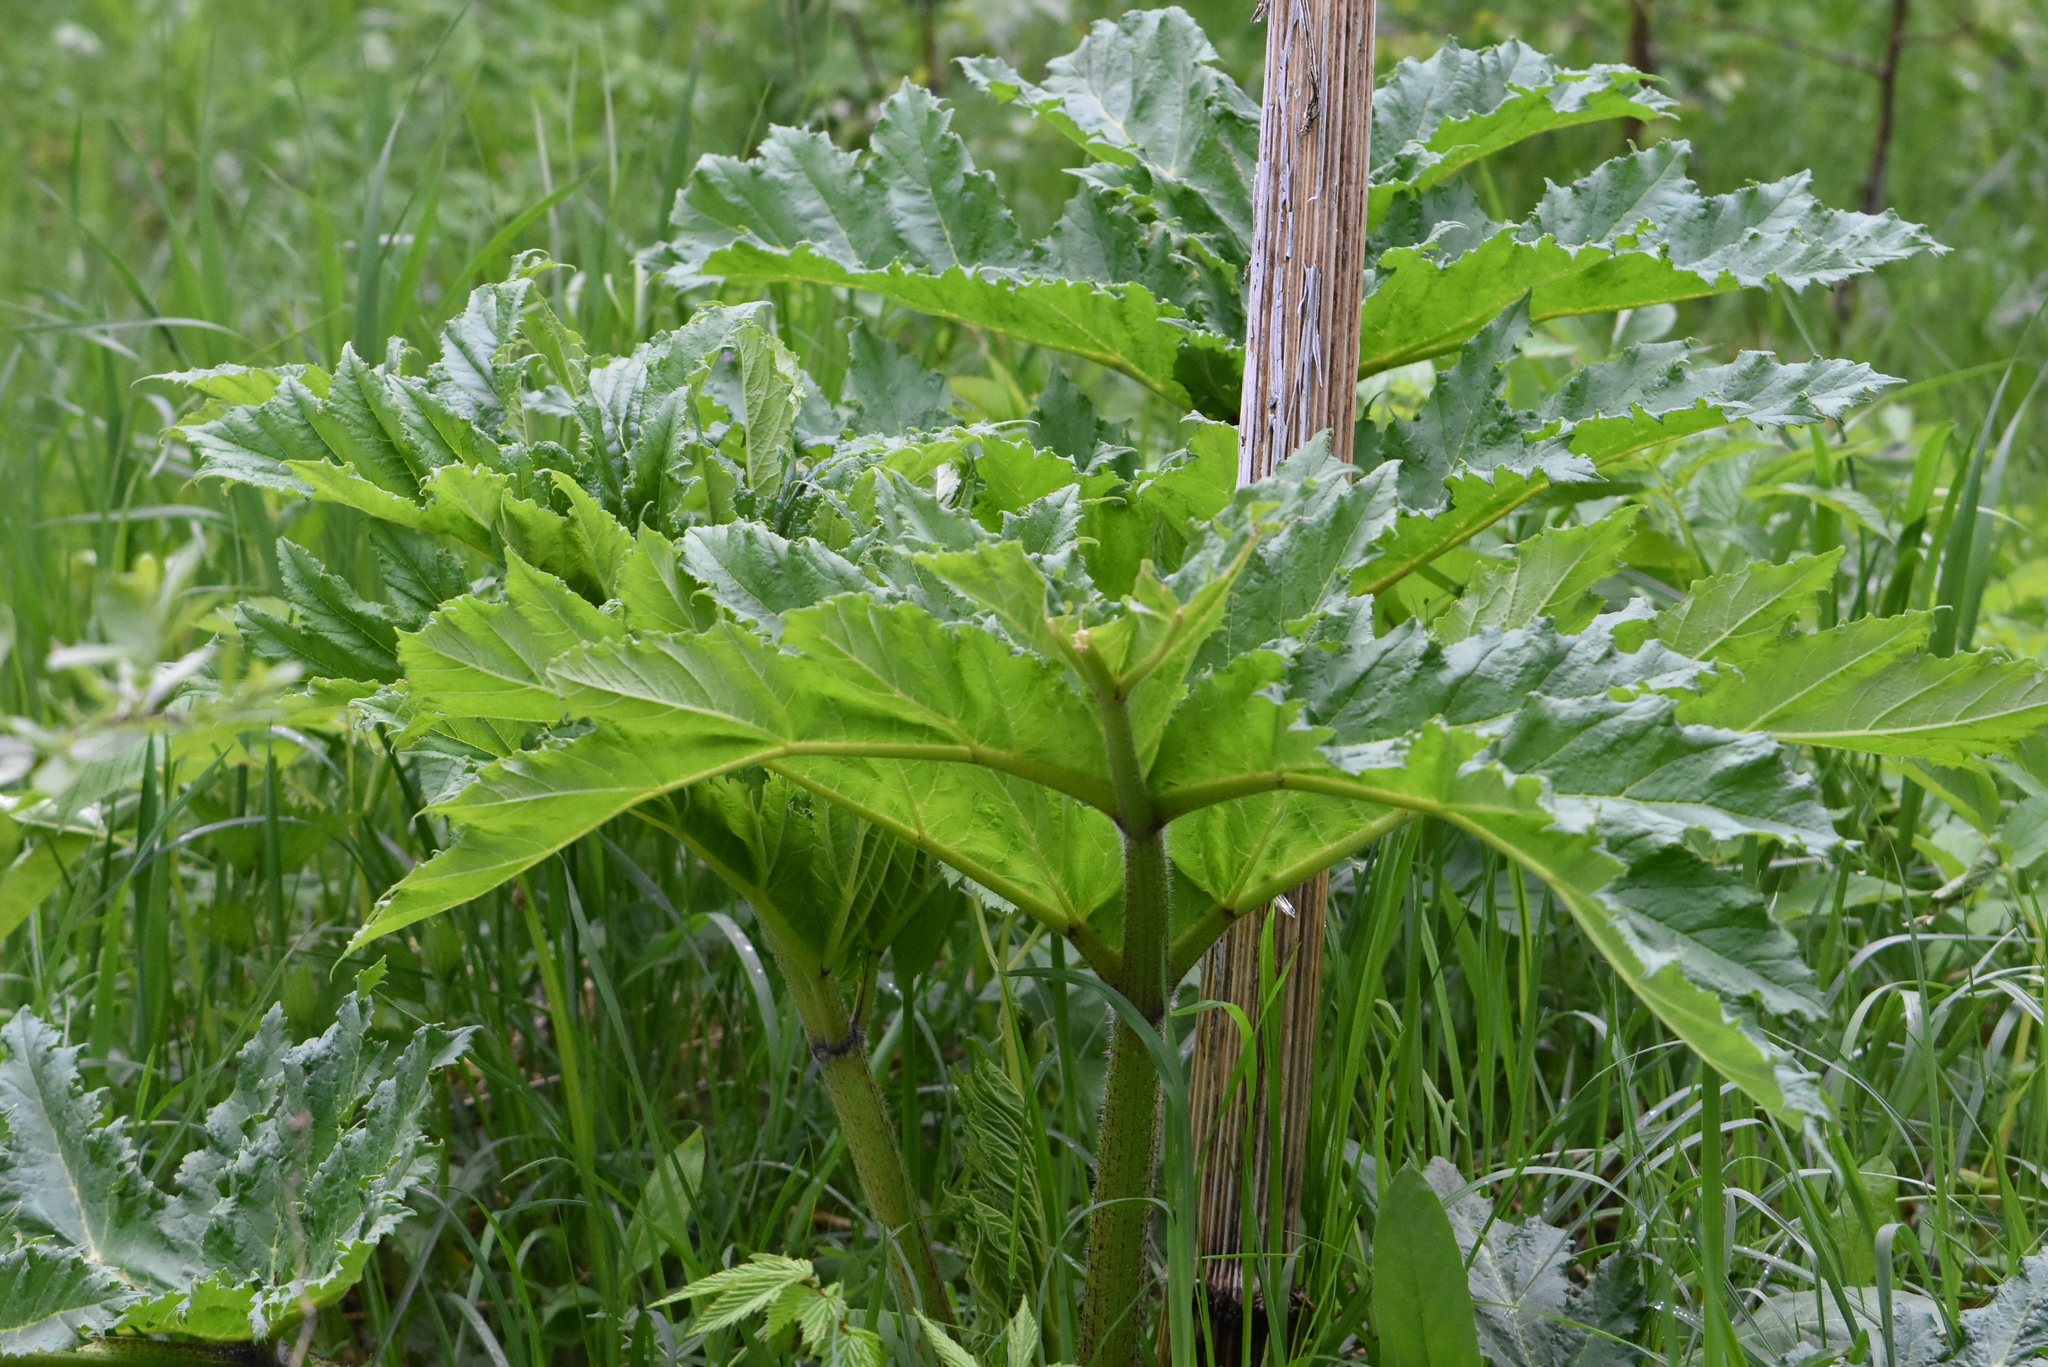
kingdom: Plantae
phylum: Tracheophyta
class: Magnoliopsida
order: Apiales
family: Apiaceae
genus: Heracleum
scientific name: Heracleum sosnowskyi
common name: Sosnowsky's hogweed
